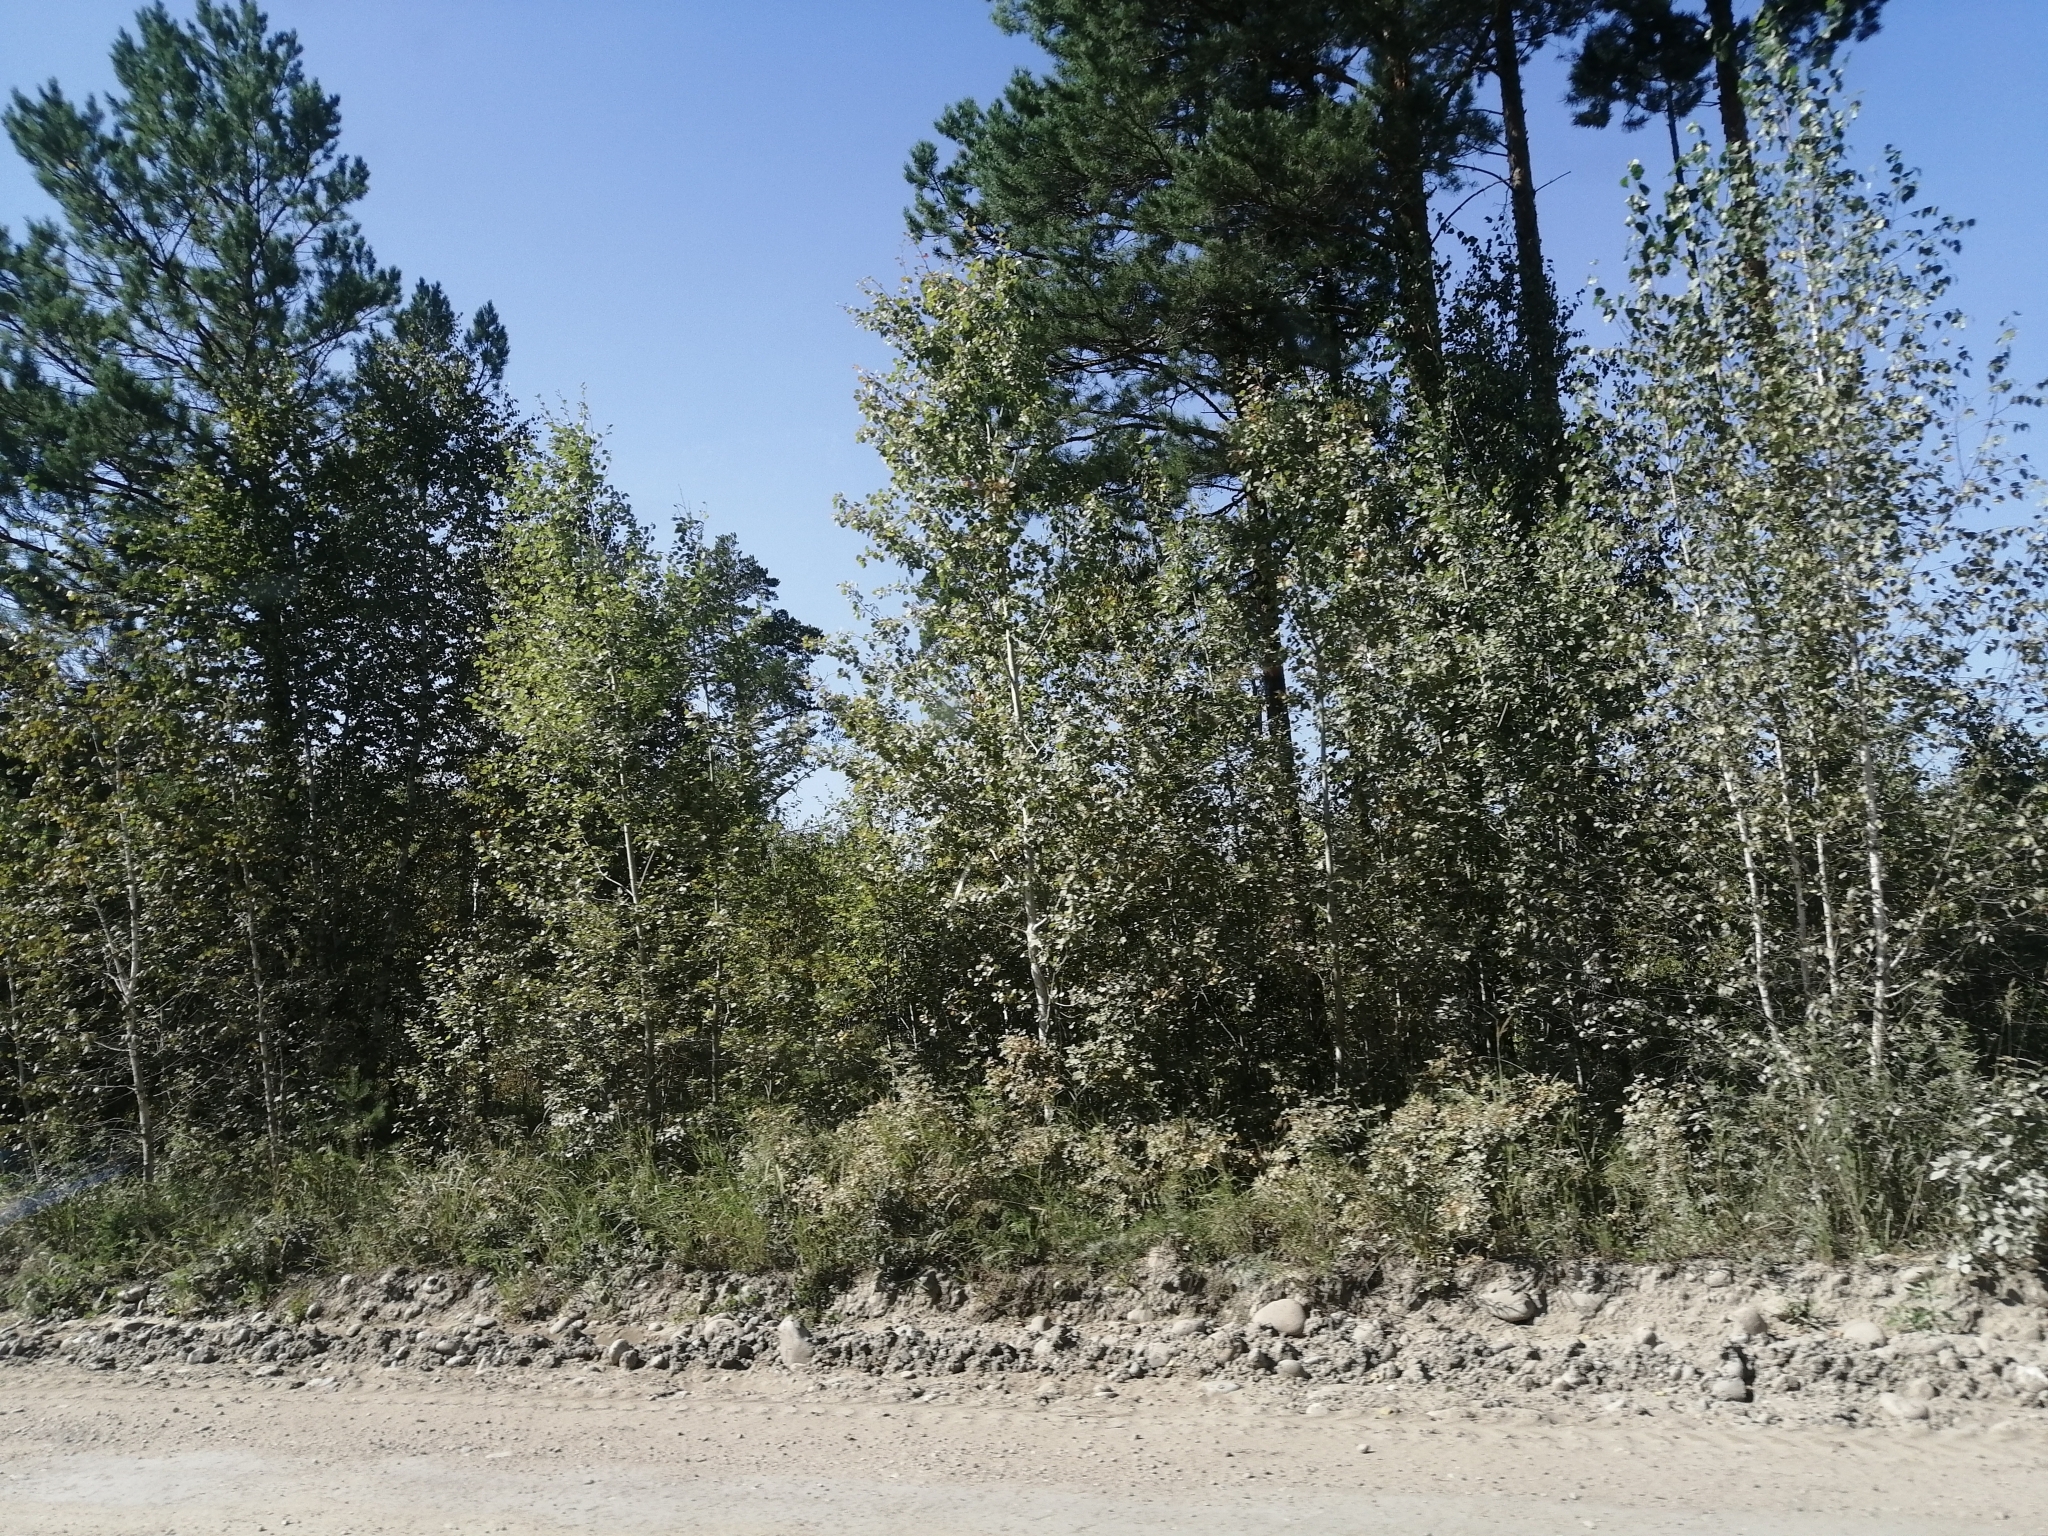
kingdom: Plantae
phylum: Tracheophyta
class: Pinopsida
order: Pinales
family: Pinaceae
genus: Pinus
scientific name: Pinus sylvestris
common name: Scots pine
